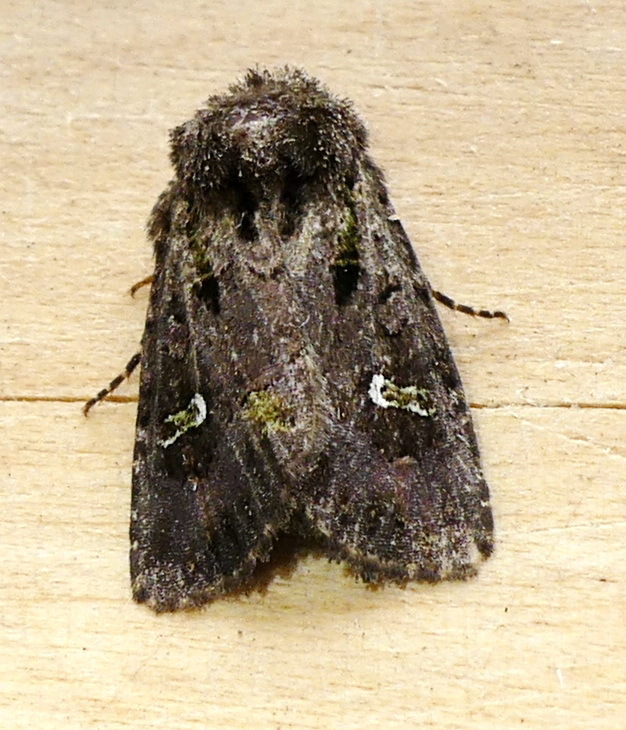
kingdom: Animalia
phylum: Arthropoda
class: Insecta
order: Lepidoptera
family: Noctuidae
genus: Lacinipolia
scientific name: Lacinipolia renigera
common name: Kidney-spotted minor
